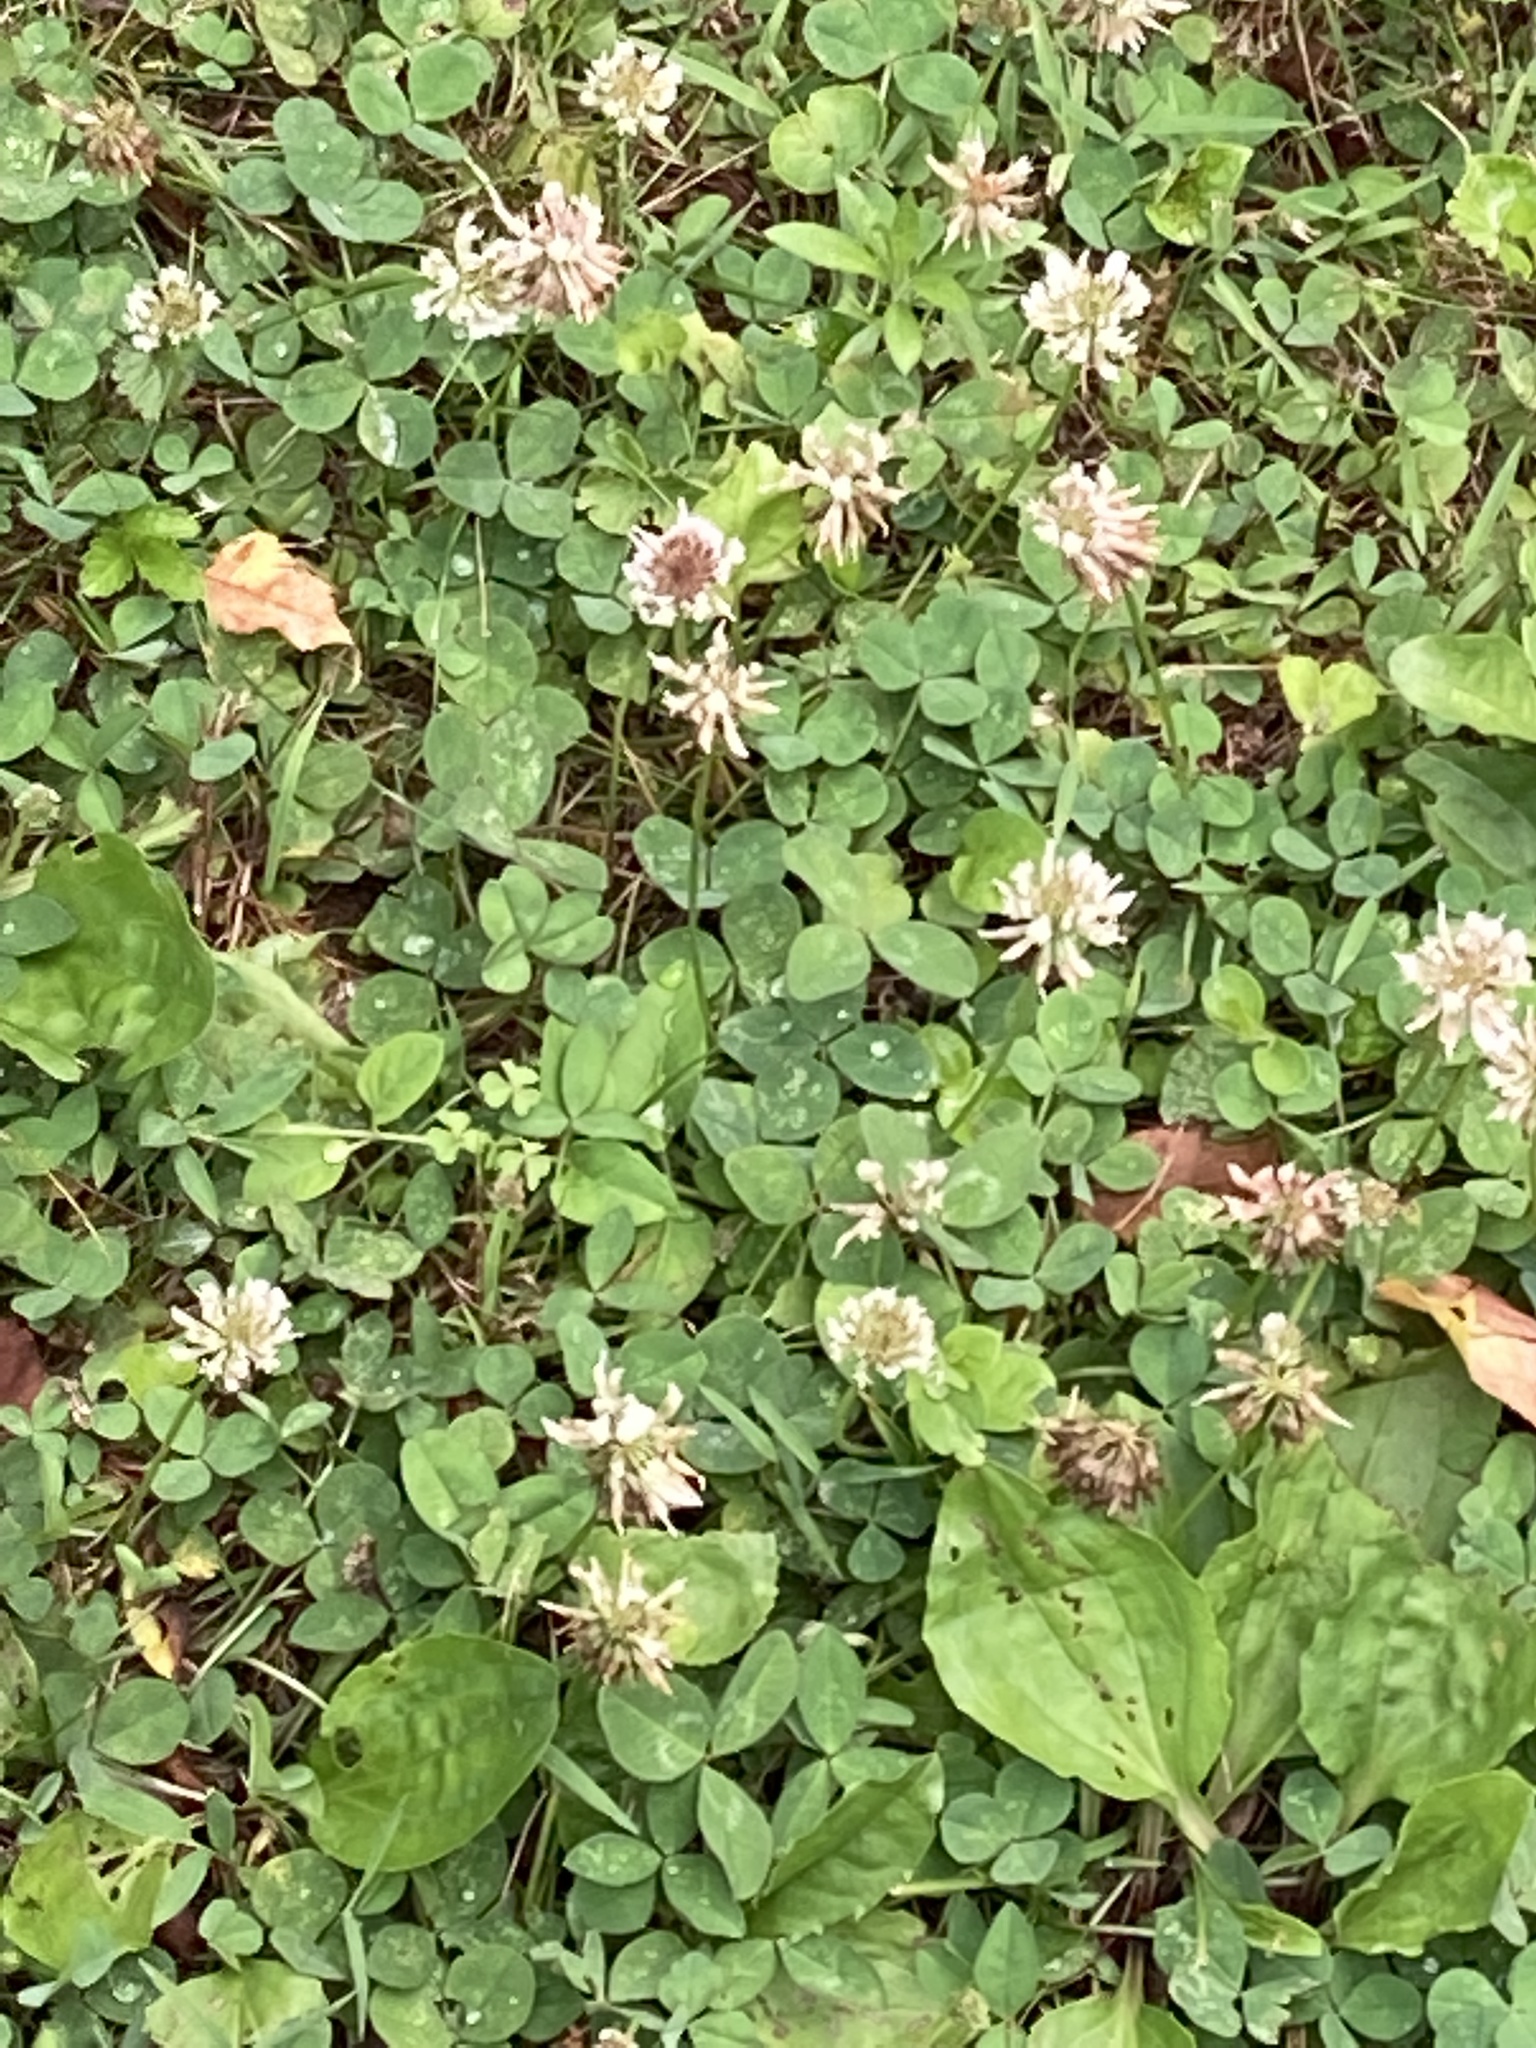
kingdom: Plantae
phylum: Tracheophyta
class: Magnoliopsida
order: Fabales
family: Fabaceae
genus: Trifolium
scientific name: Trifolium repens
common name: White clover
